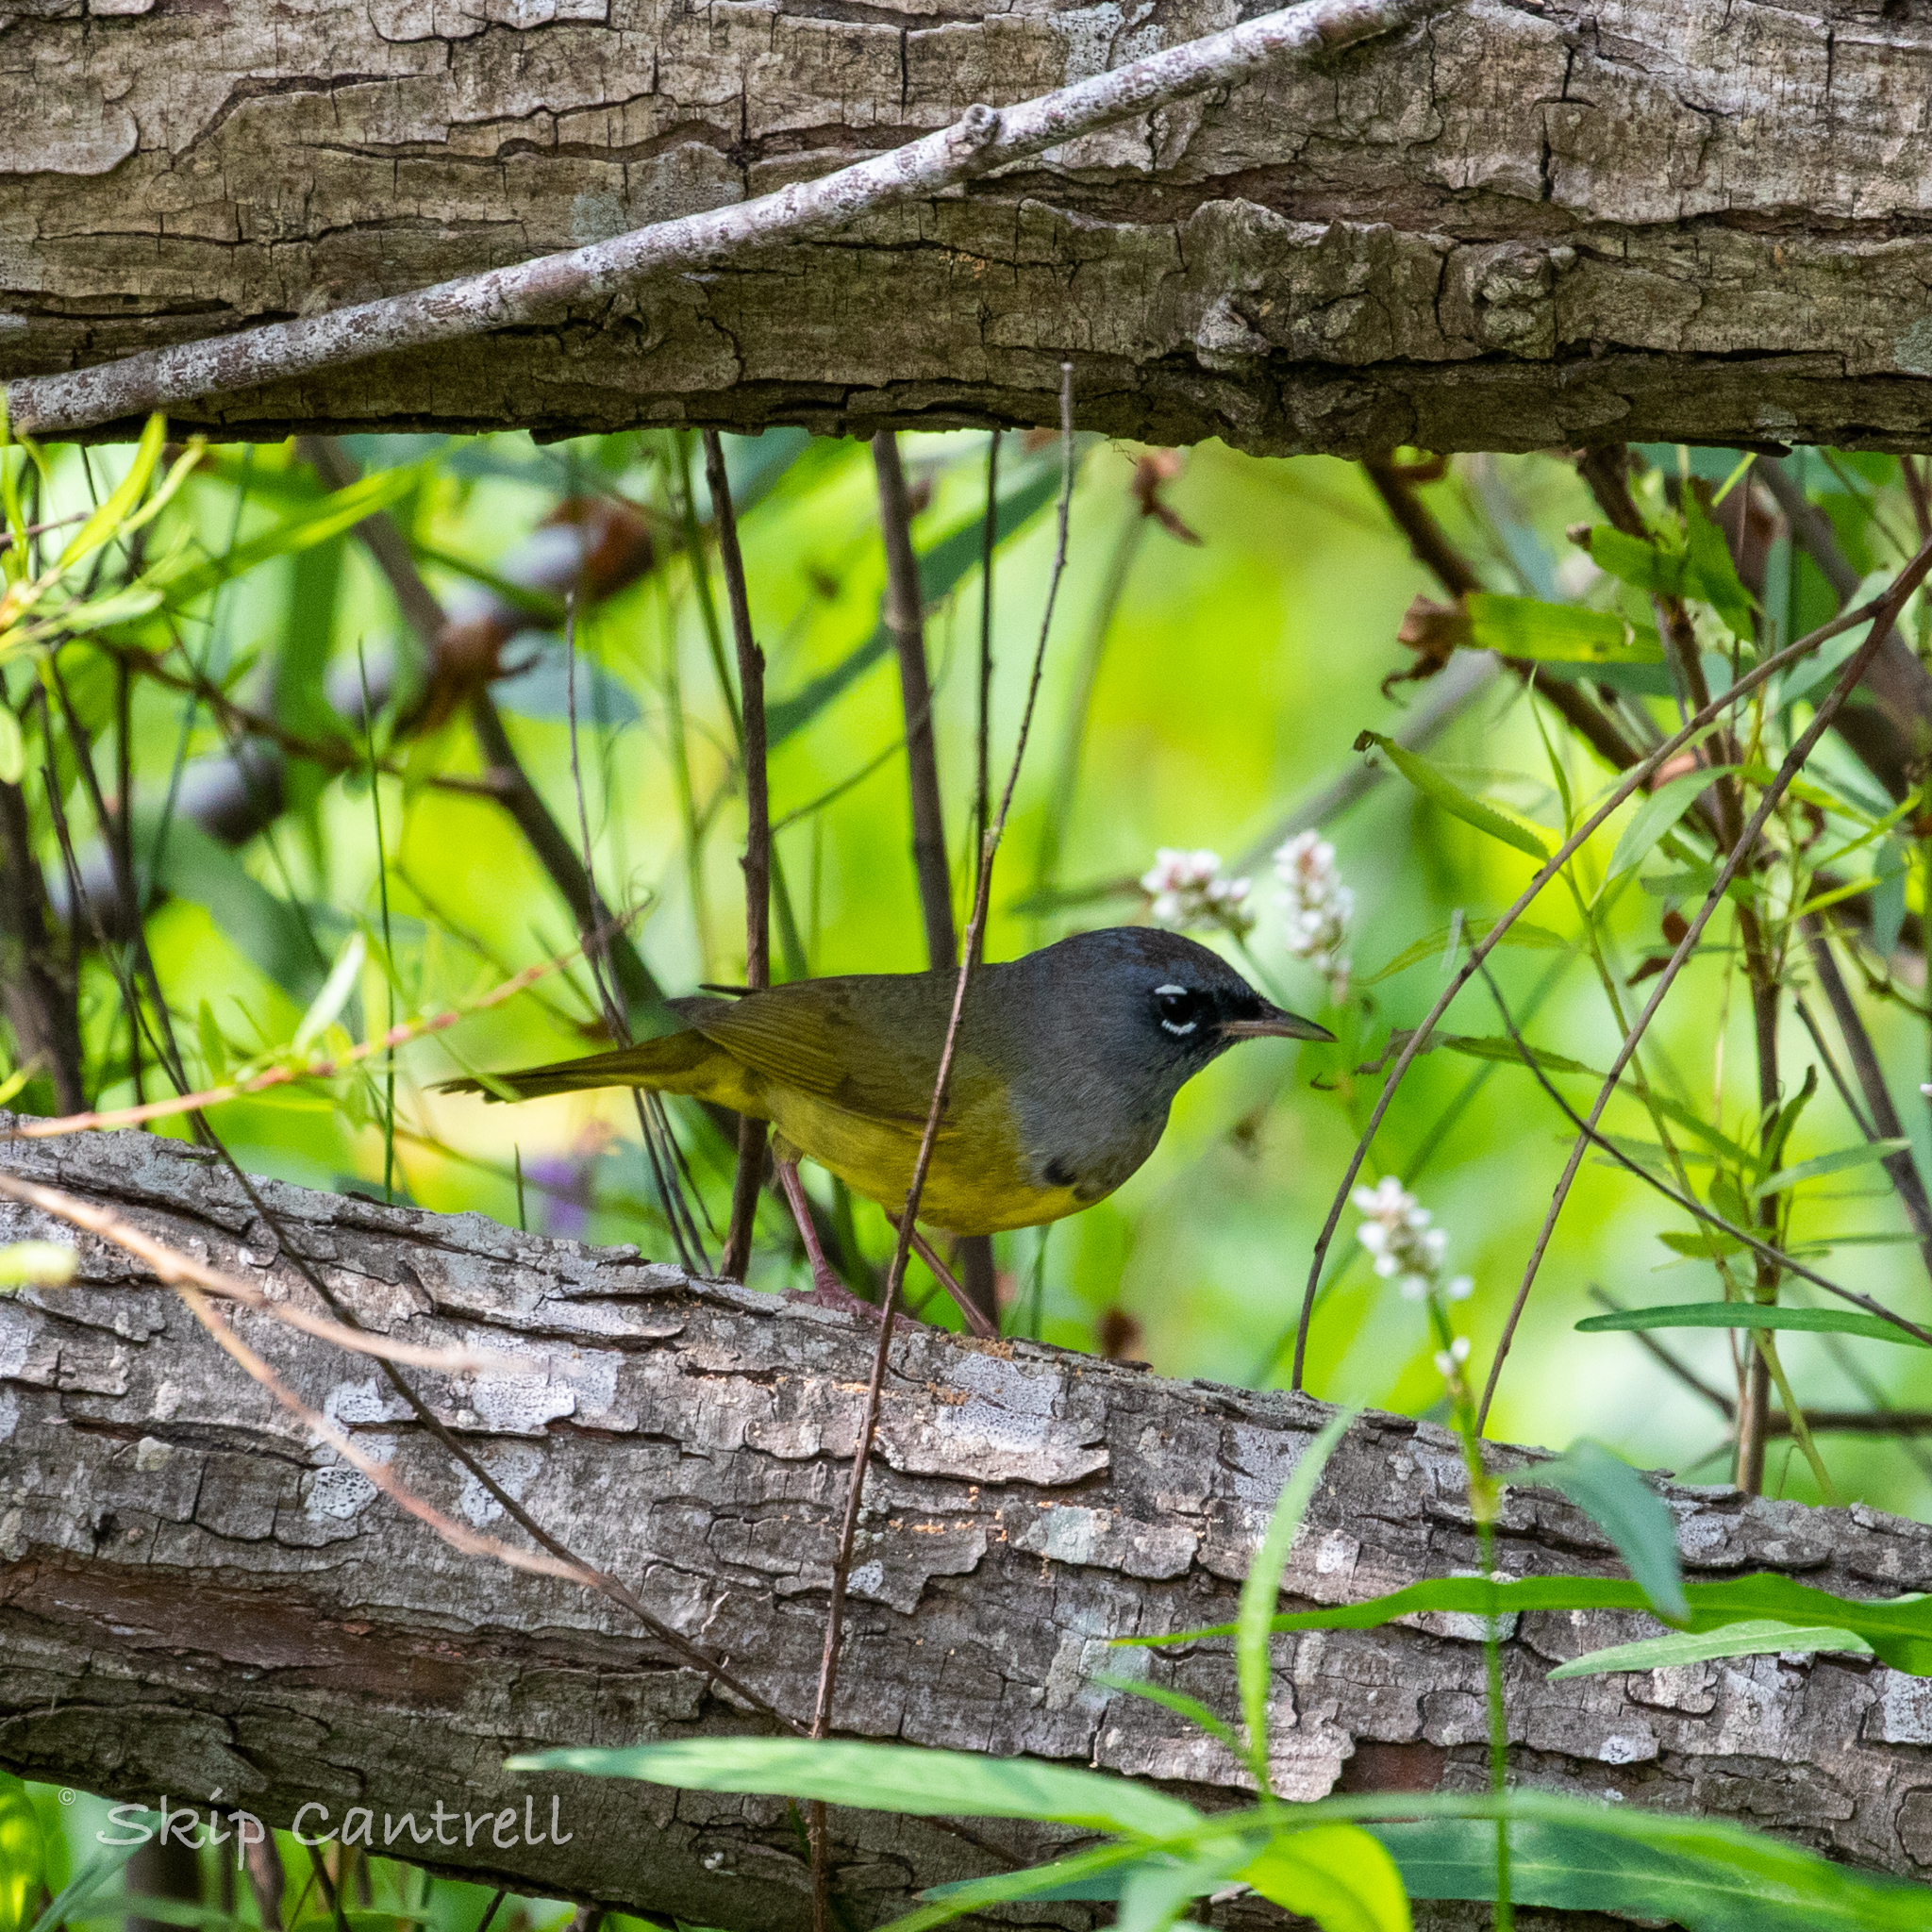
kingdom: Animalia
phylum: Chordata
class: Aves
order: Passeriformes
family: Parulidae
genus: Geothlypis
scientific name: Geothlypis tolmiei
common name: Macgillivray's warbler
